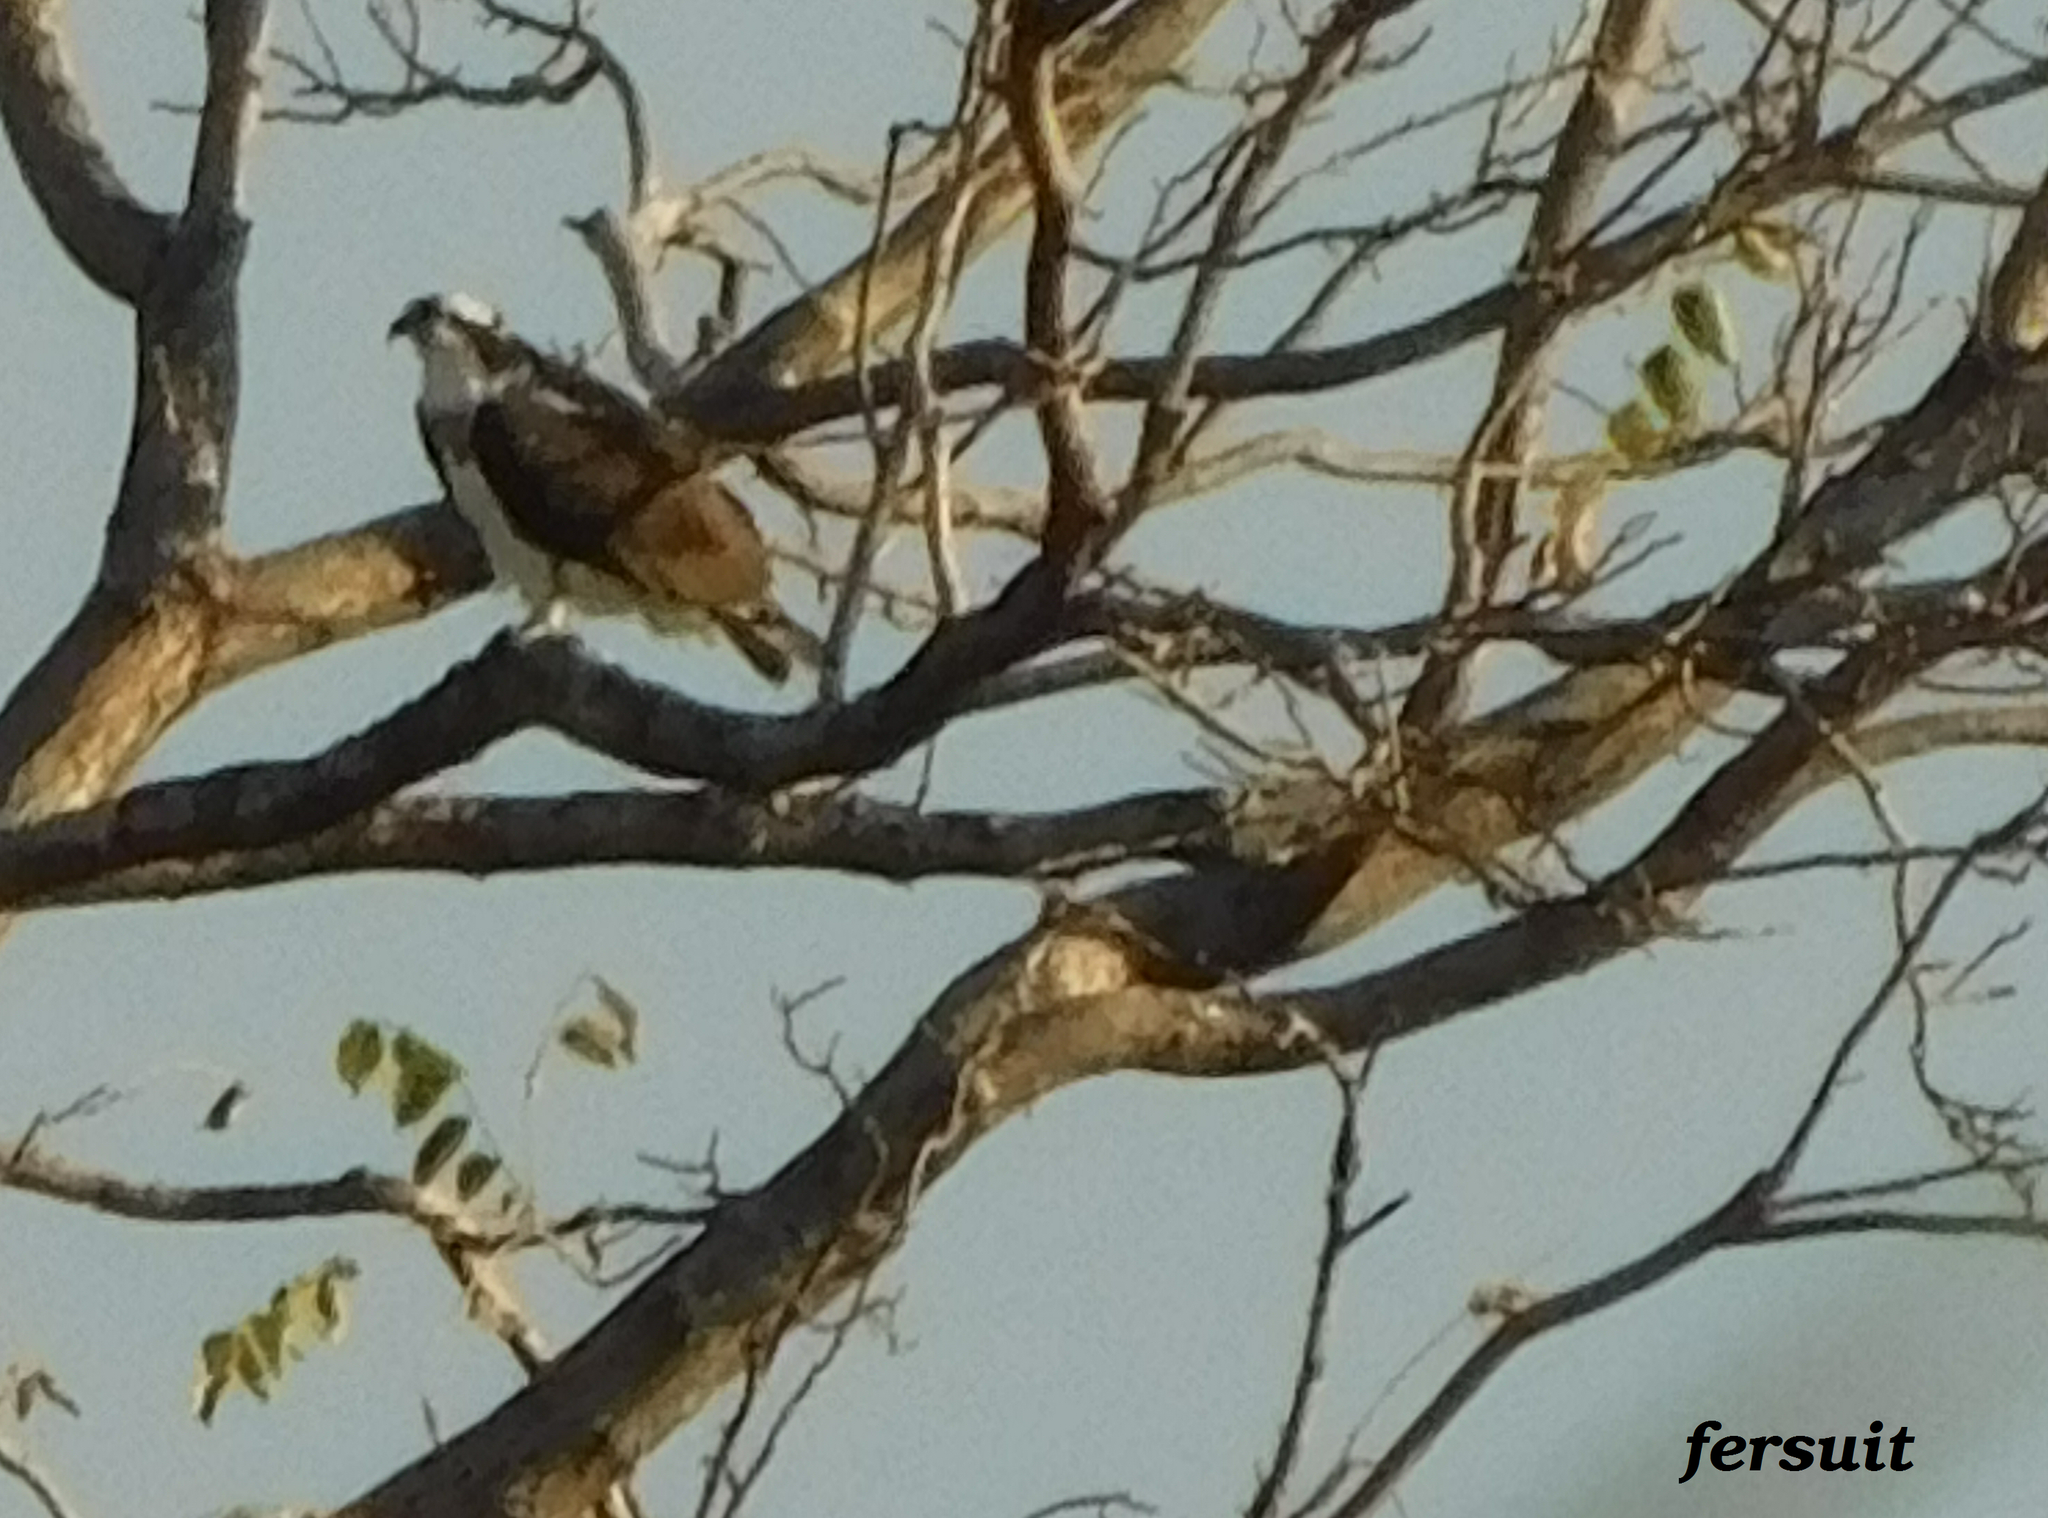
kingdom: Animalia
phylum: Chordata
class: Aves
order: Accipitriformes
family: Pandionidae
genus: Pandion
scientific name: Pandion haliaetus
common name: Osprey
